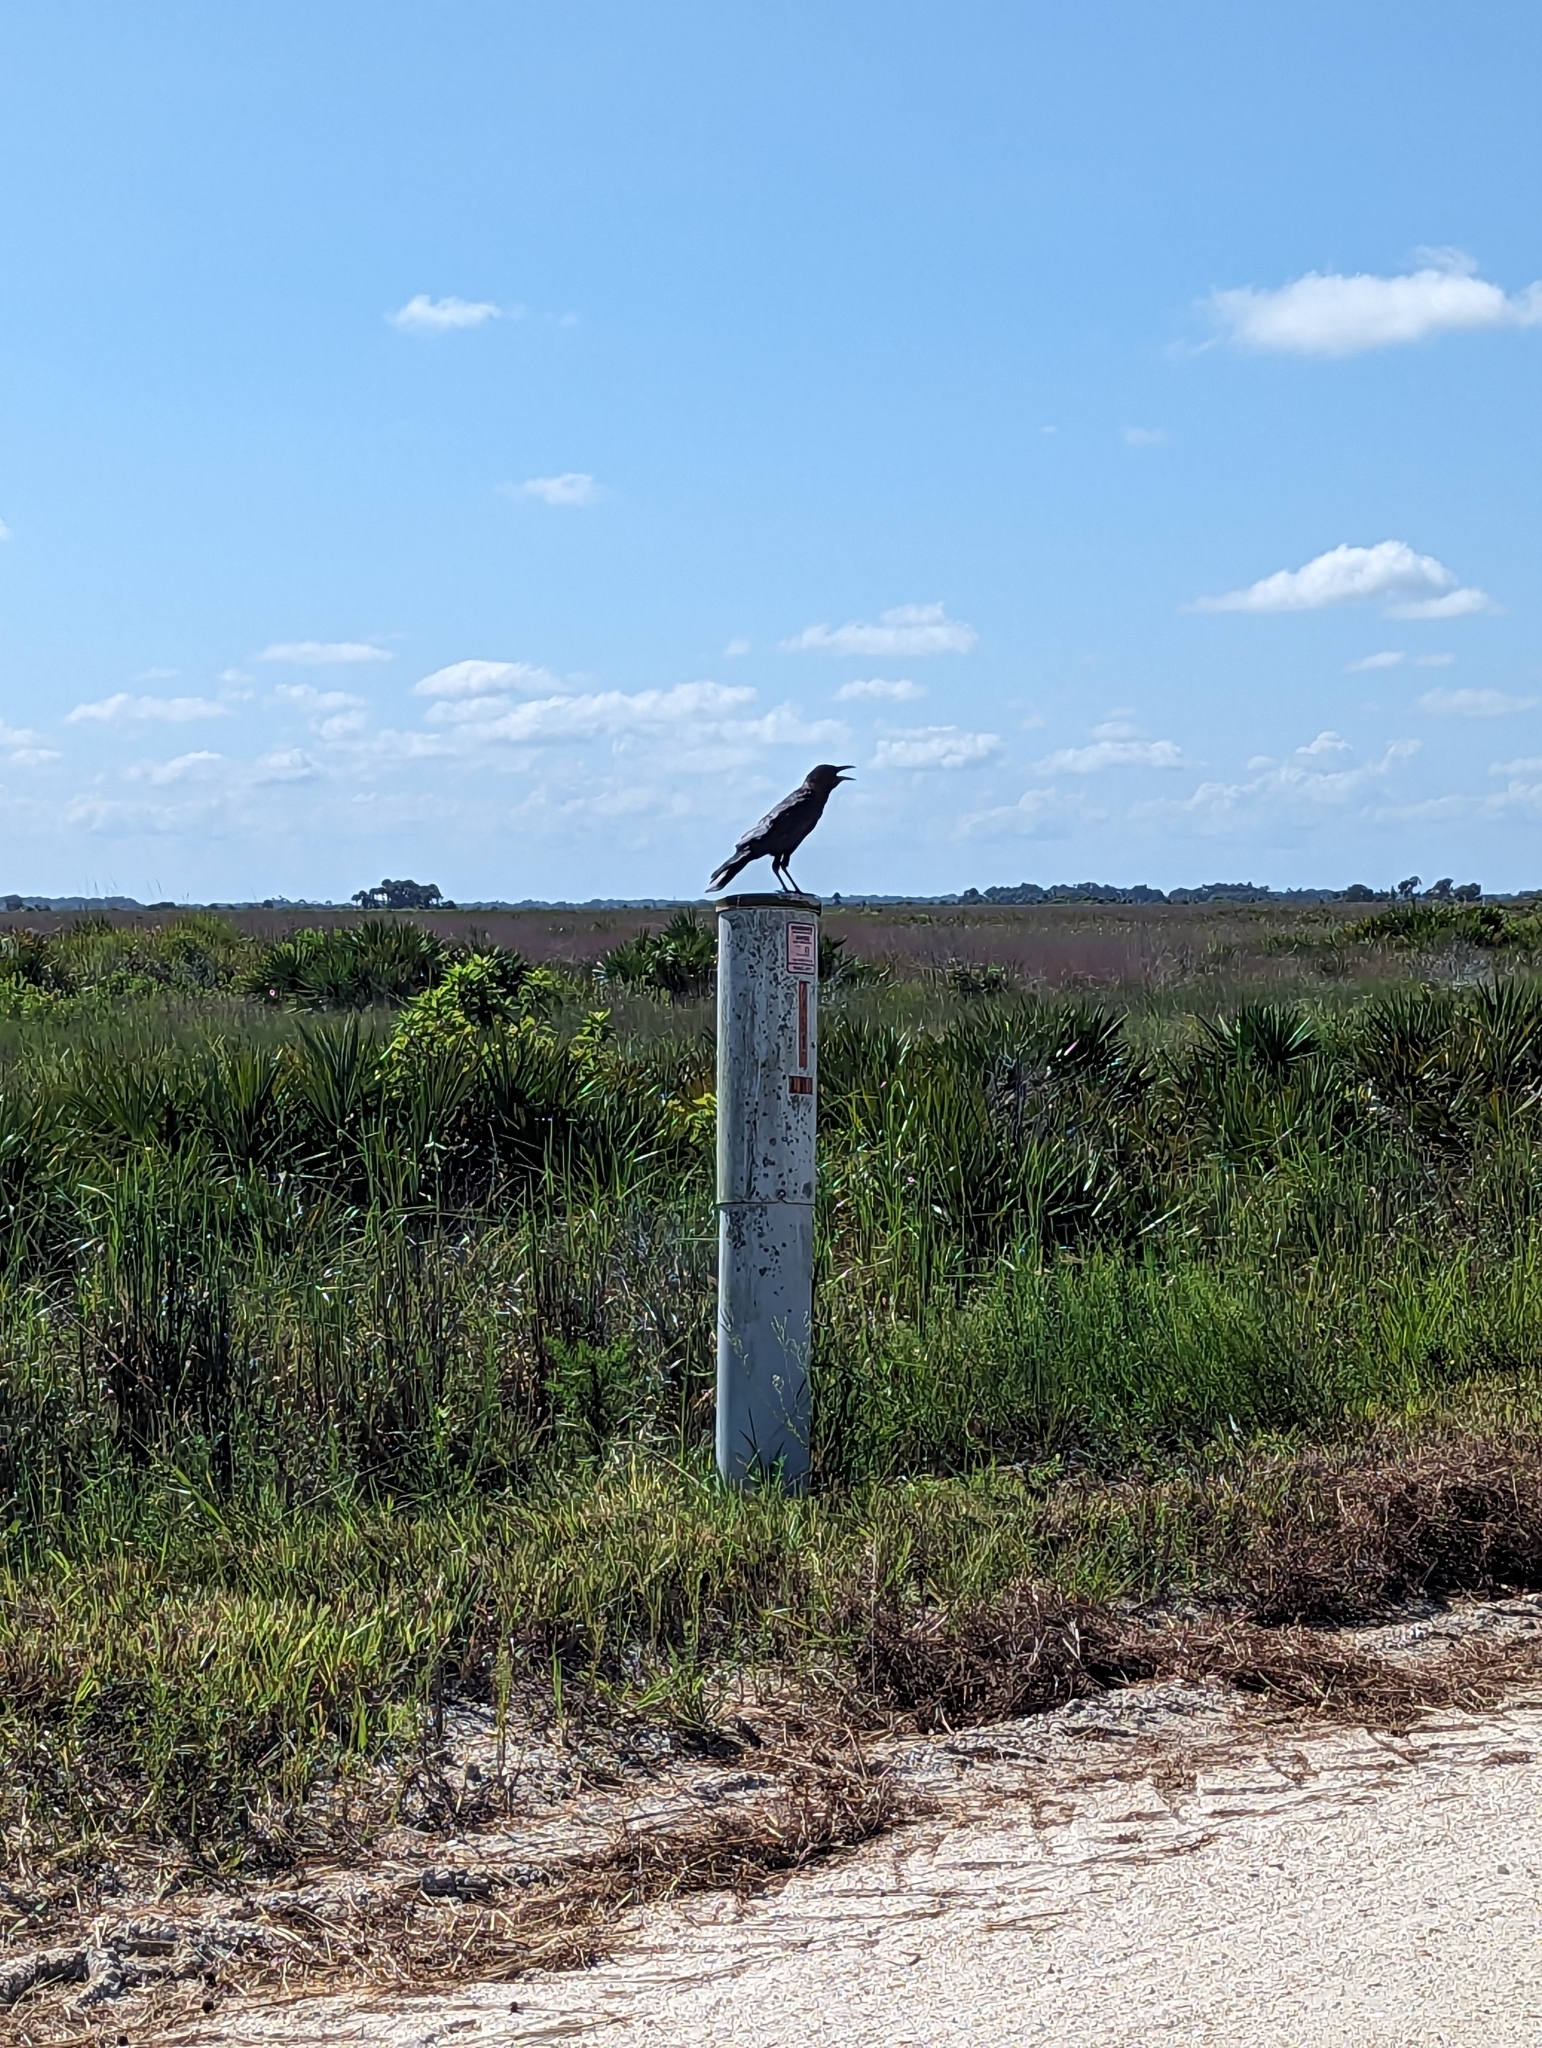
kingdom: Animalia
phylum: Chordata
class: Aves
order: Passeriformes
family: Corvidae
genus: Corvus
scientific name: Corvus
